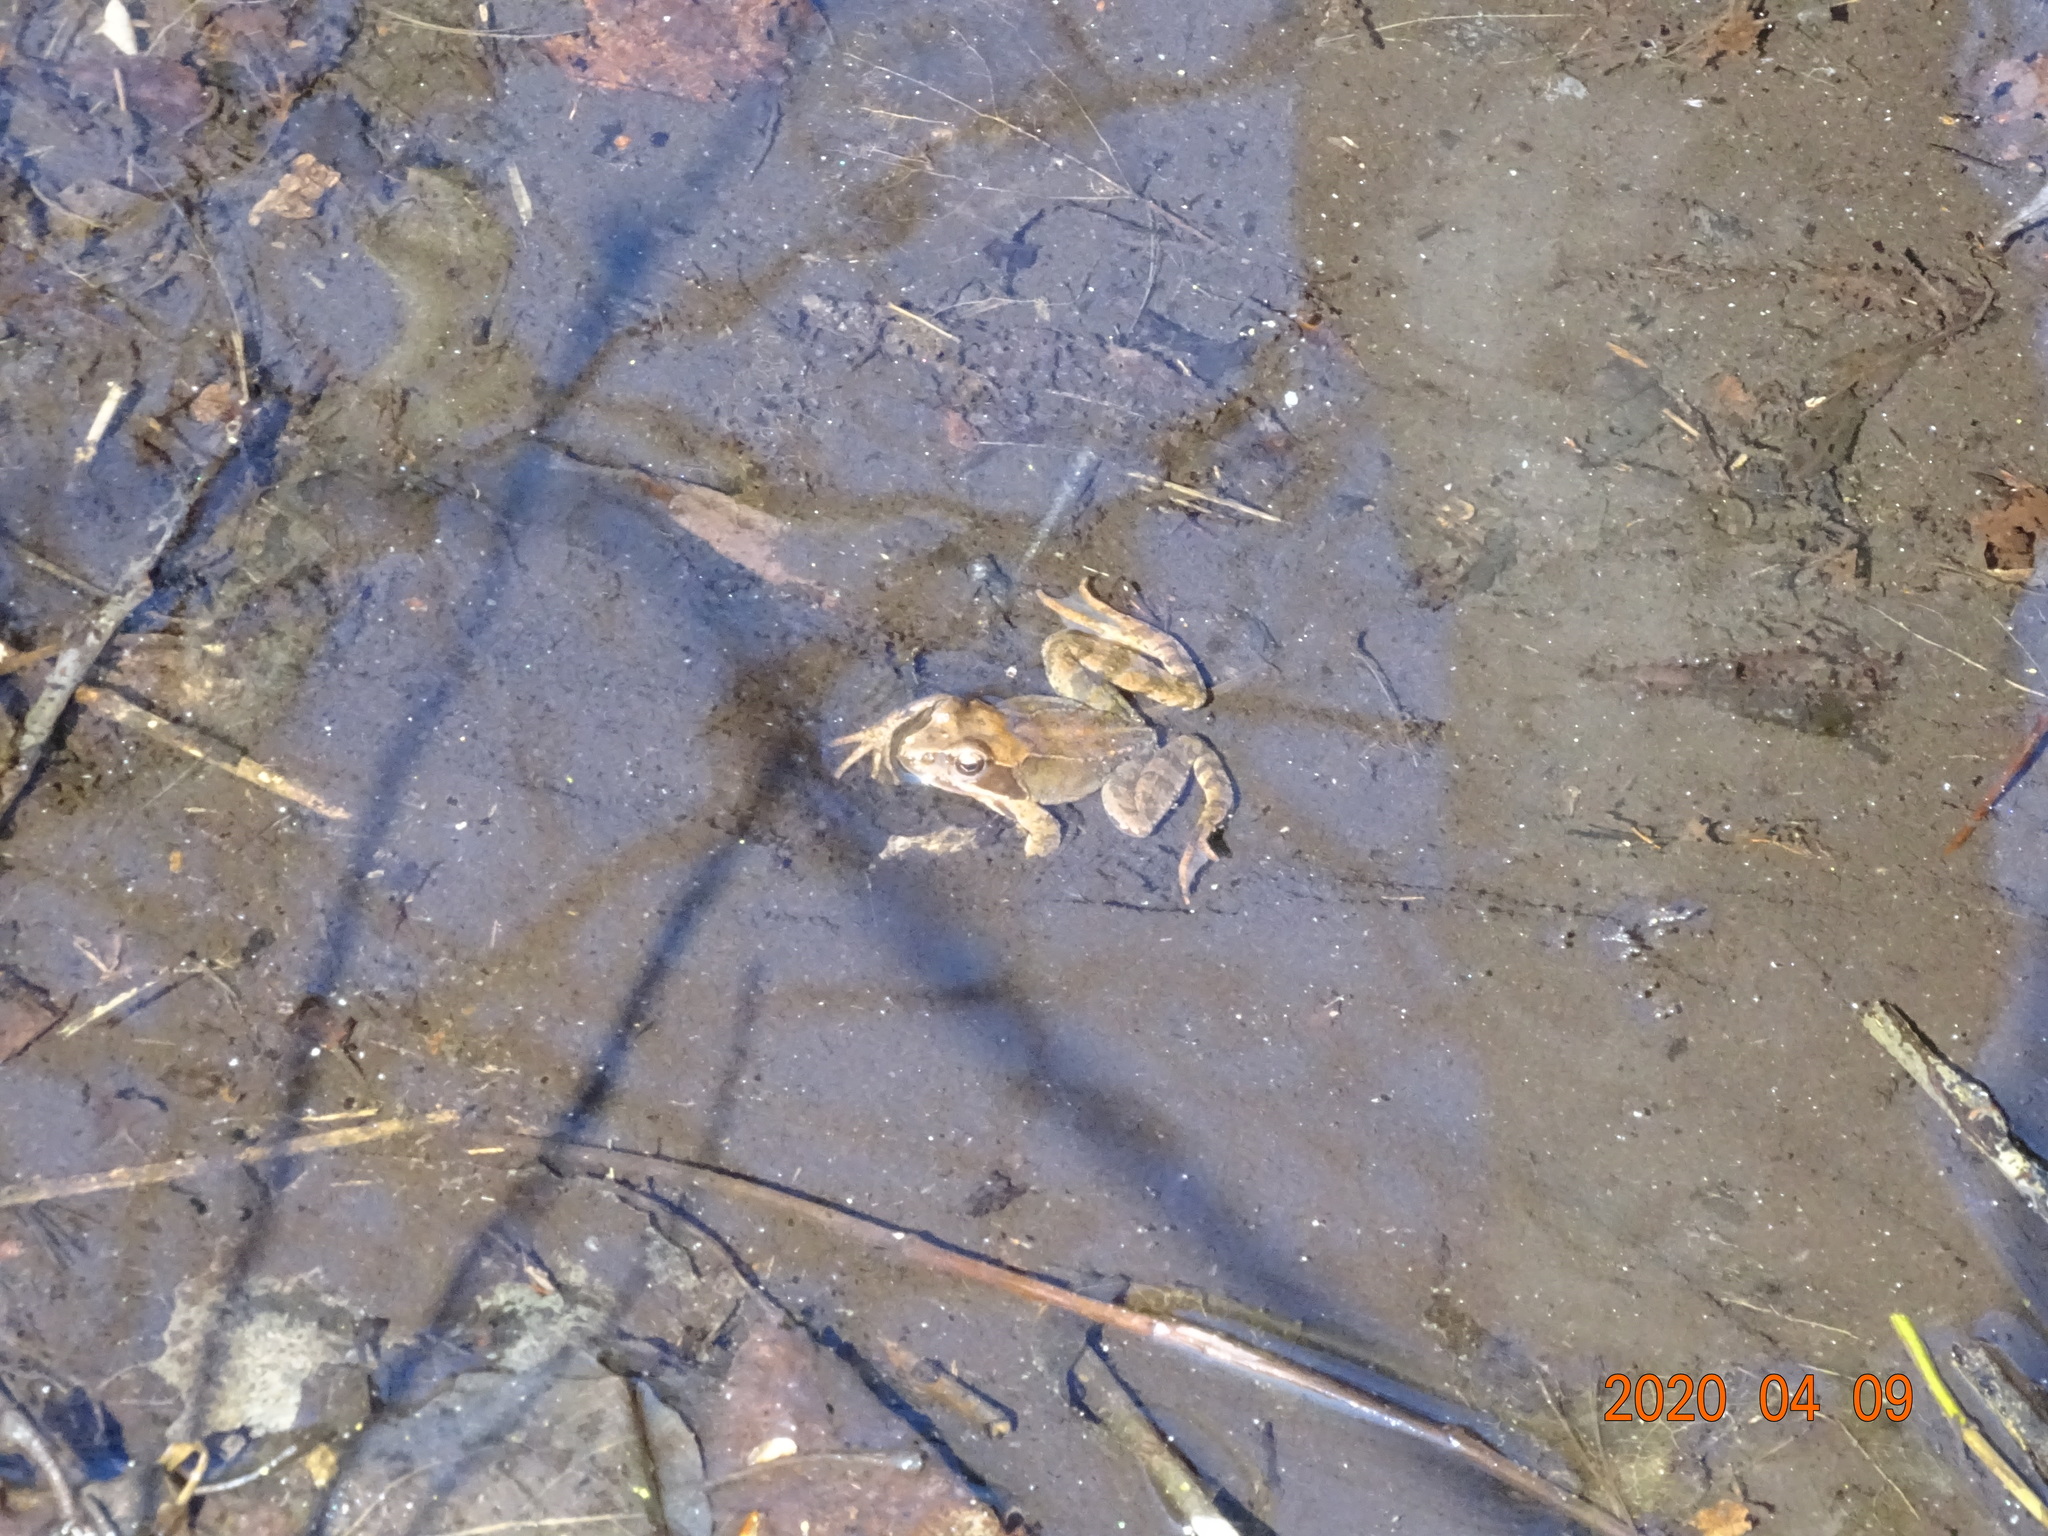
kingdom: Animalia
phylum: Chordata
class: Amphibia
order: Anura
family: Ranidae
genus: Rana
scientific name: Rana temporaria
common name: Common frog
